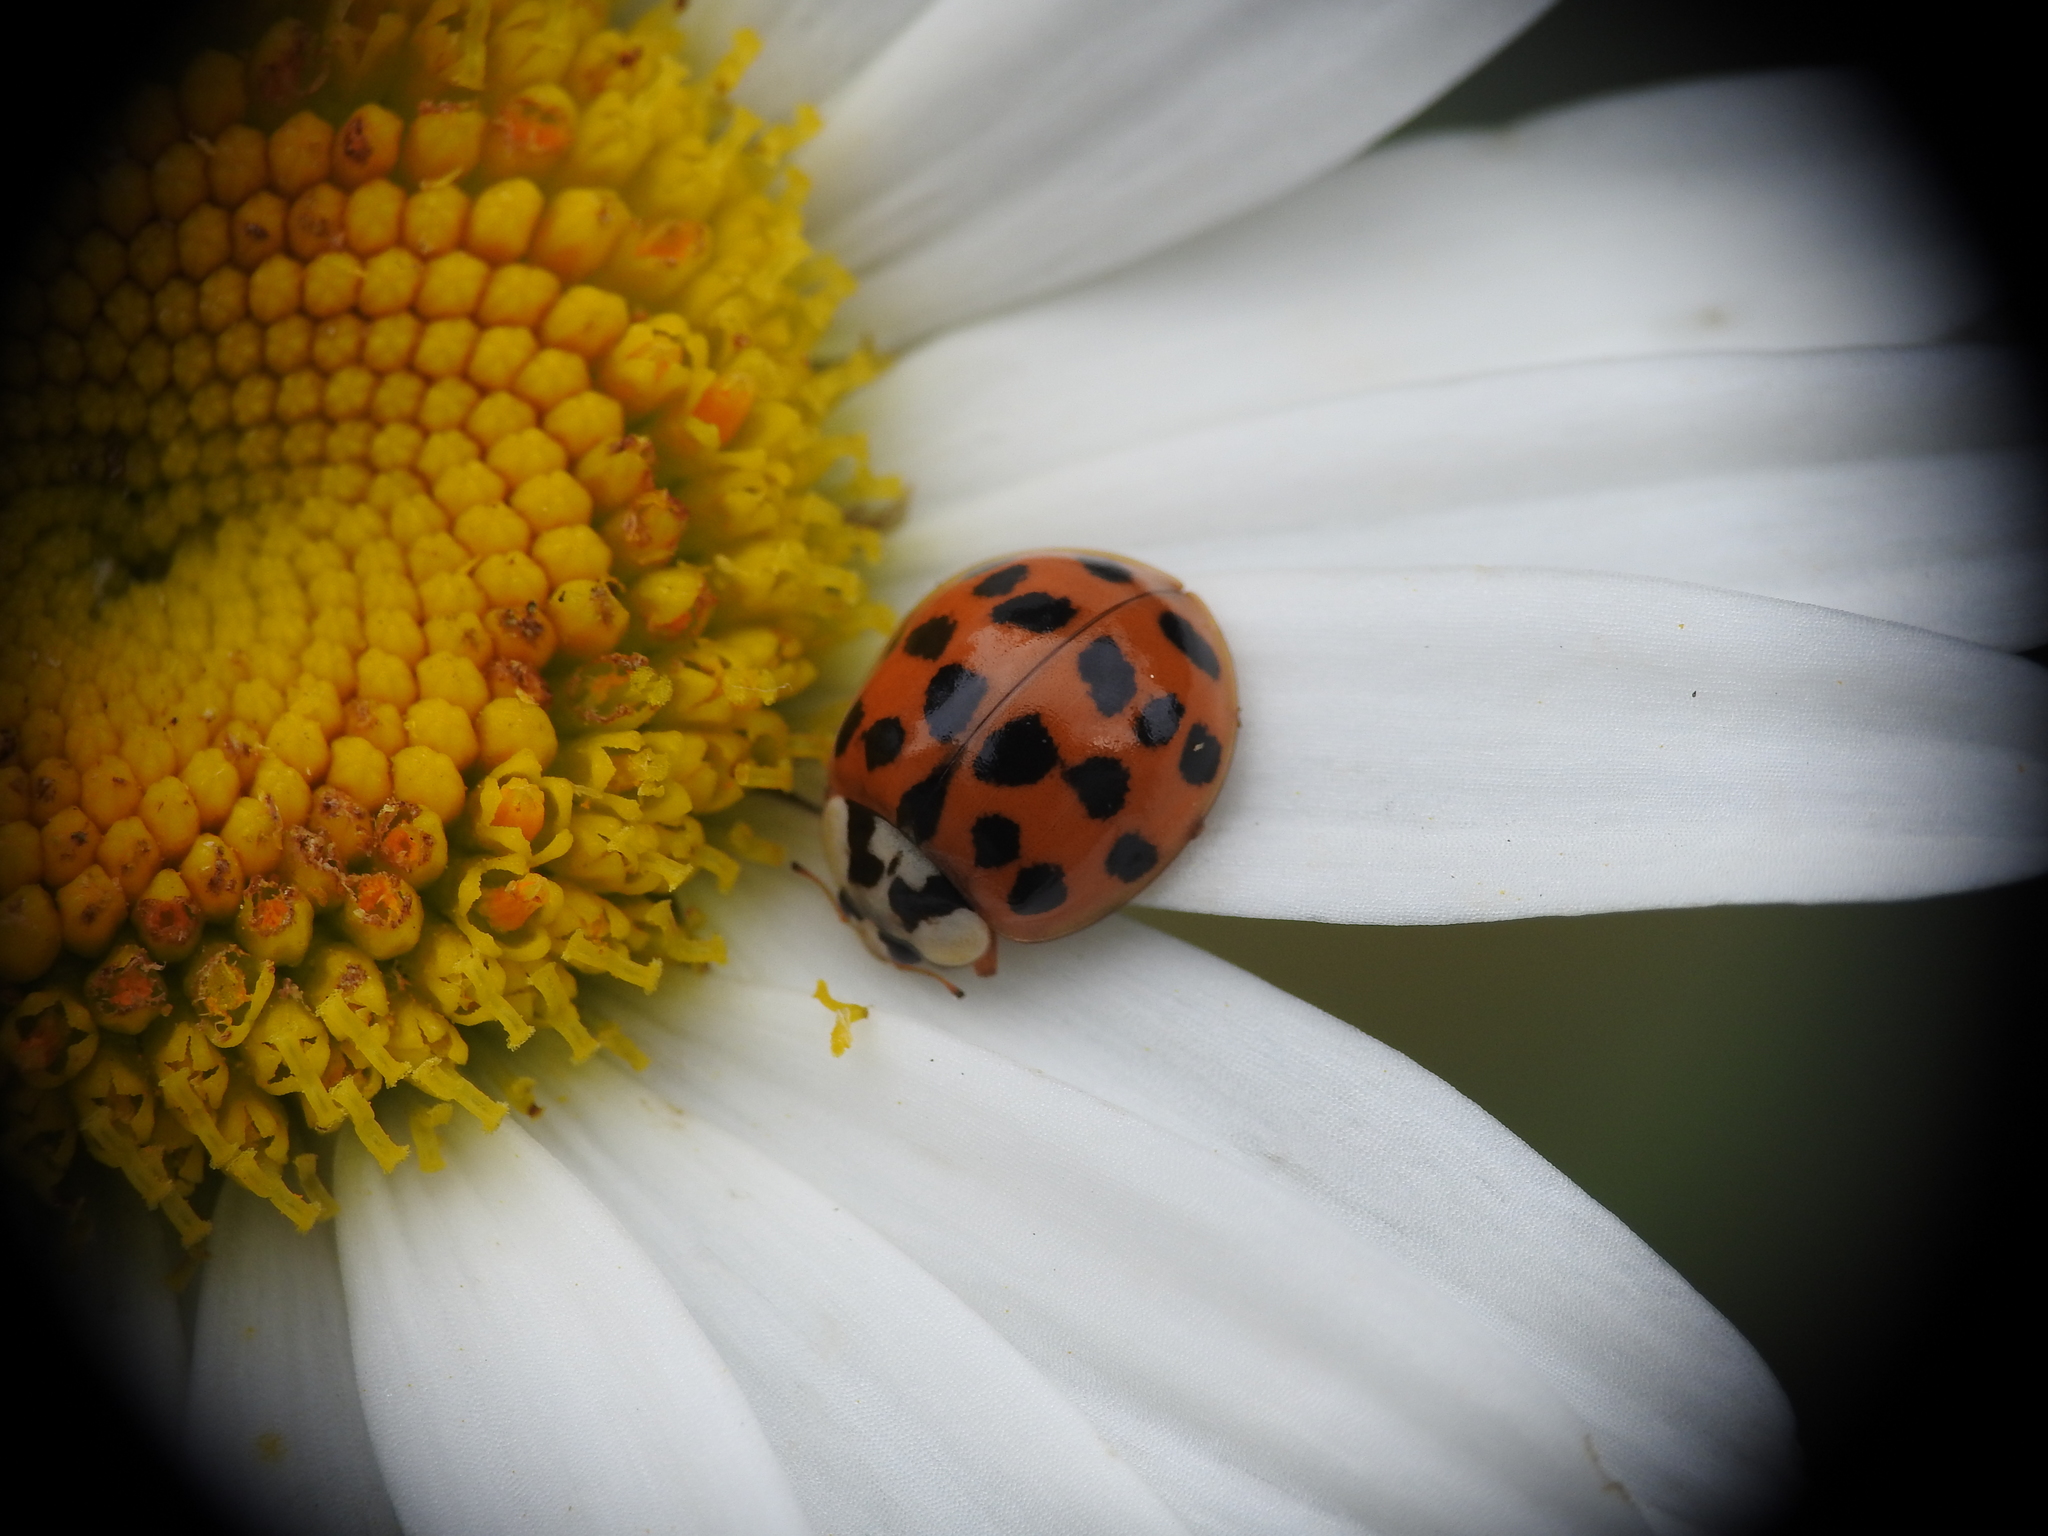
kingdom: Animalia
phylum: Arthropoda
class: Insecta
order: Coleoptera
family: Coccinellidae
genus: Harmonia
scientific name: Harmonia axyridis
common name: Harlequin ladybird
